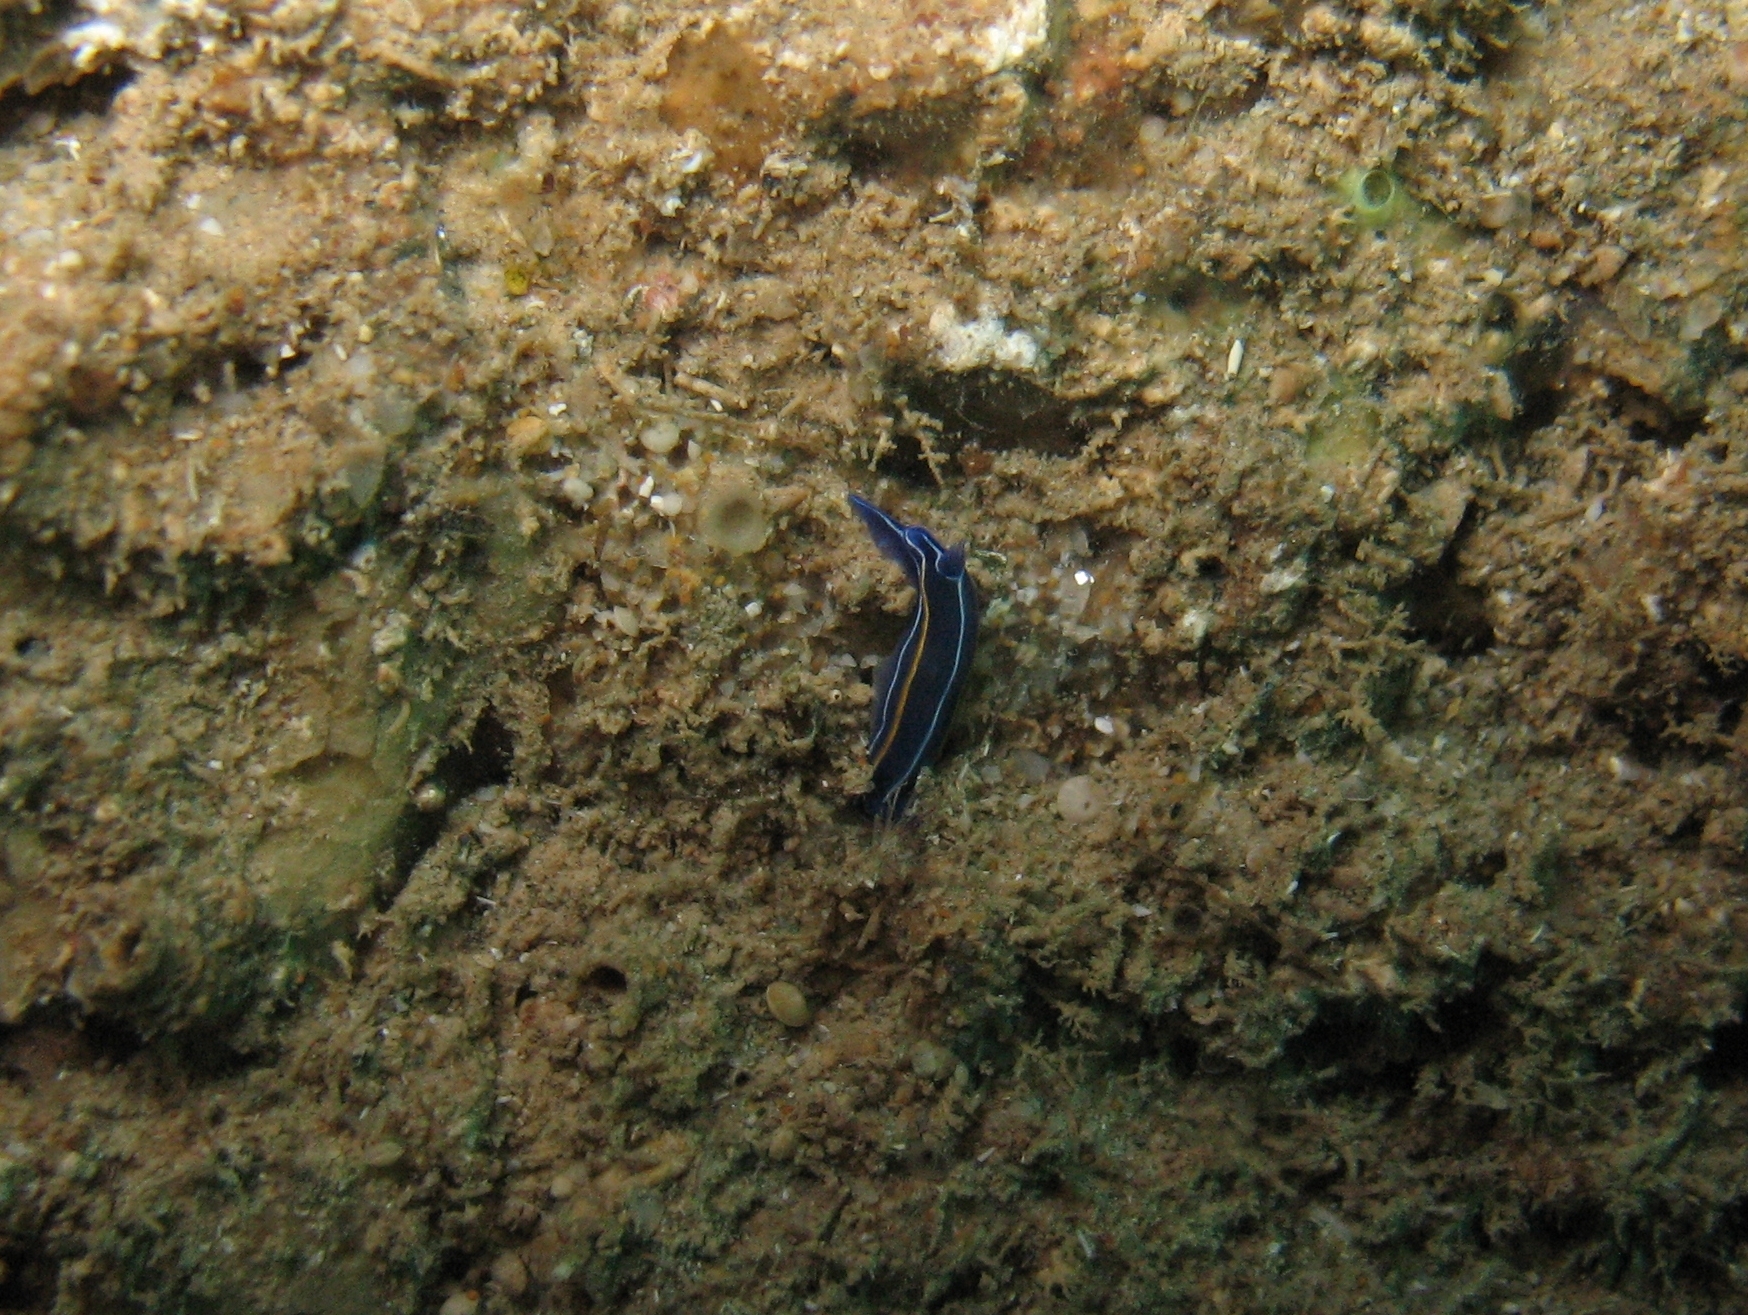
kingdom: Animalia
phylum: Mollusca
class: Gastropoda
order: Nudibranchia
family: Chromodorididae
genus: Felimare
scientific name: Felimare orsinii
